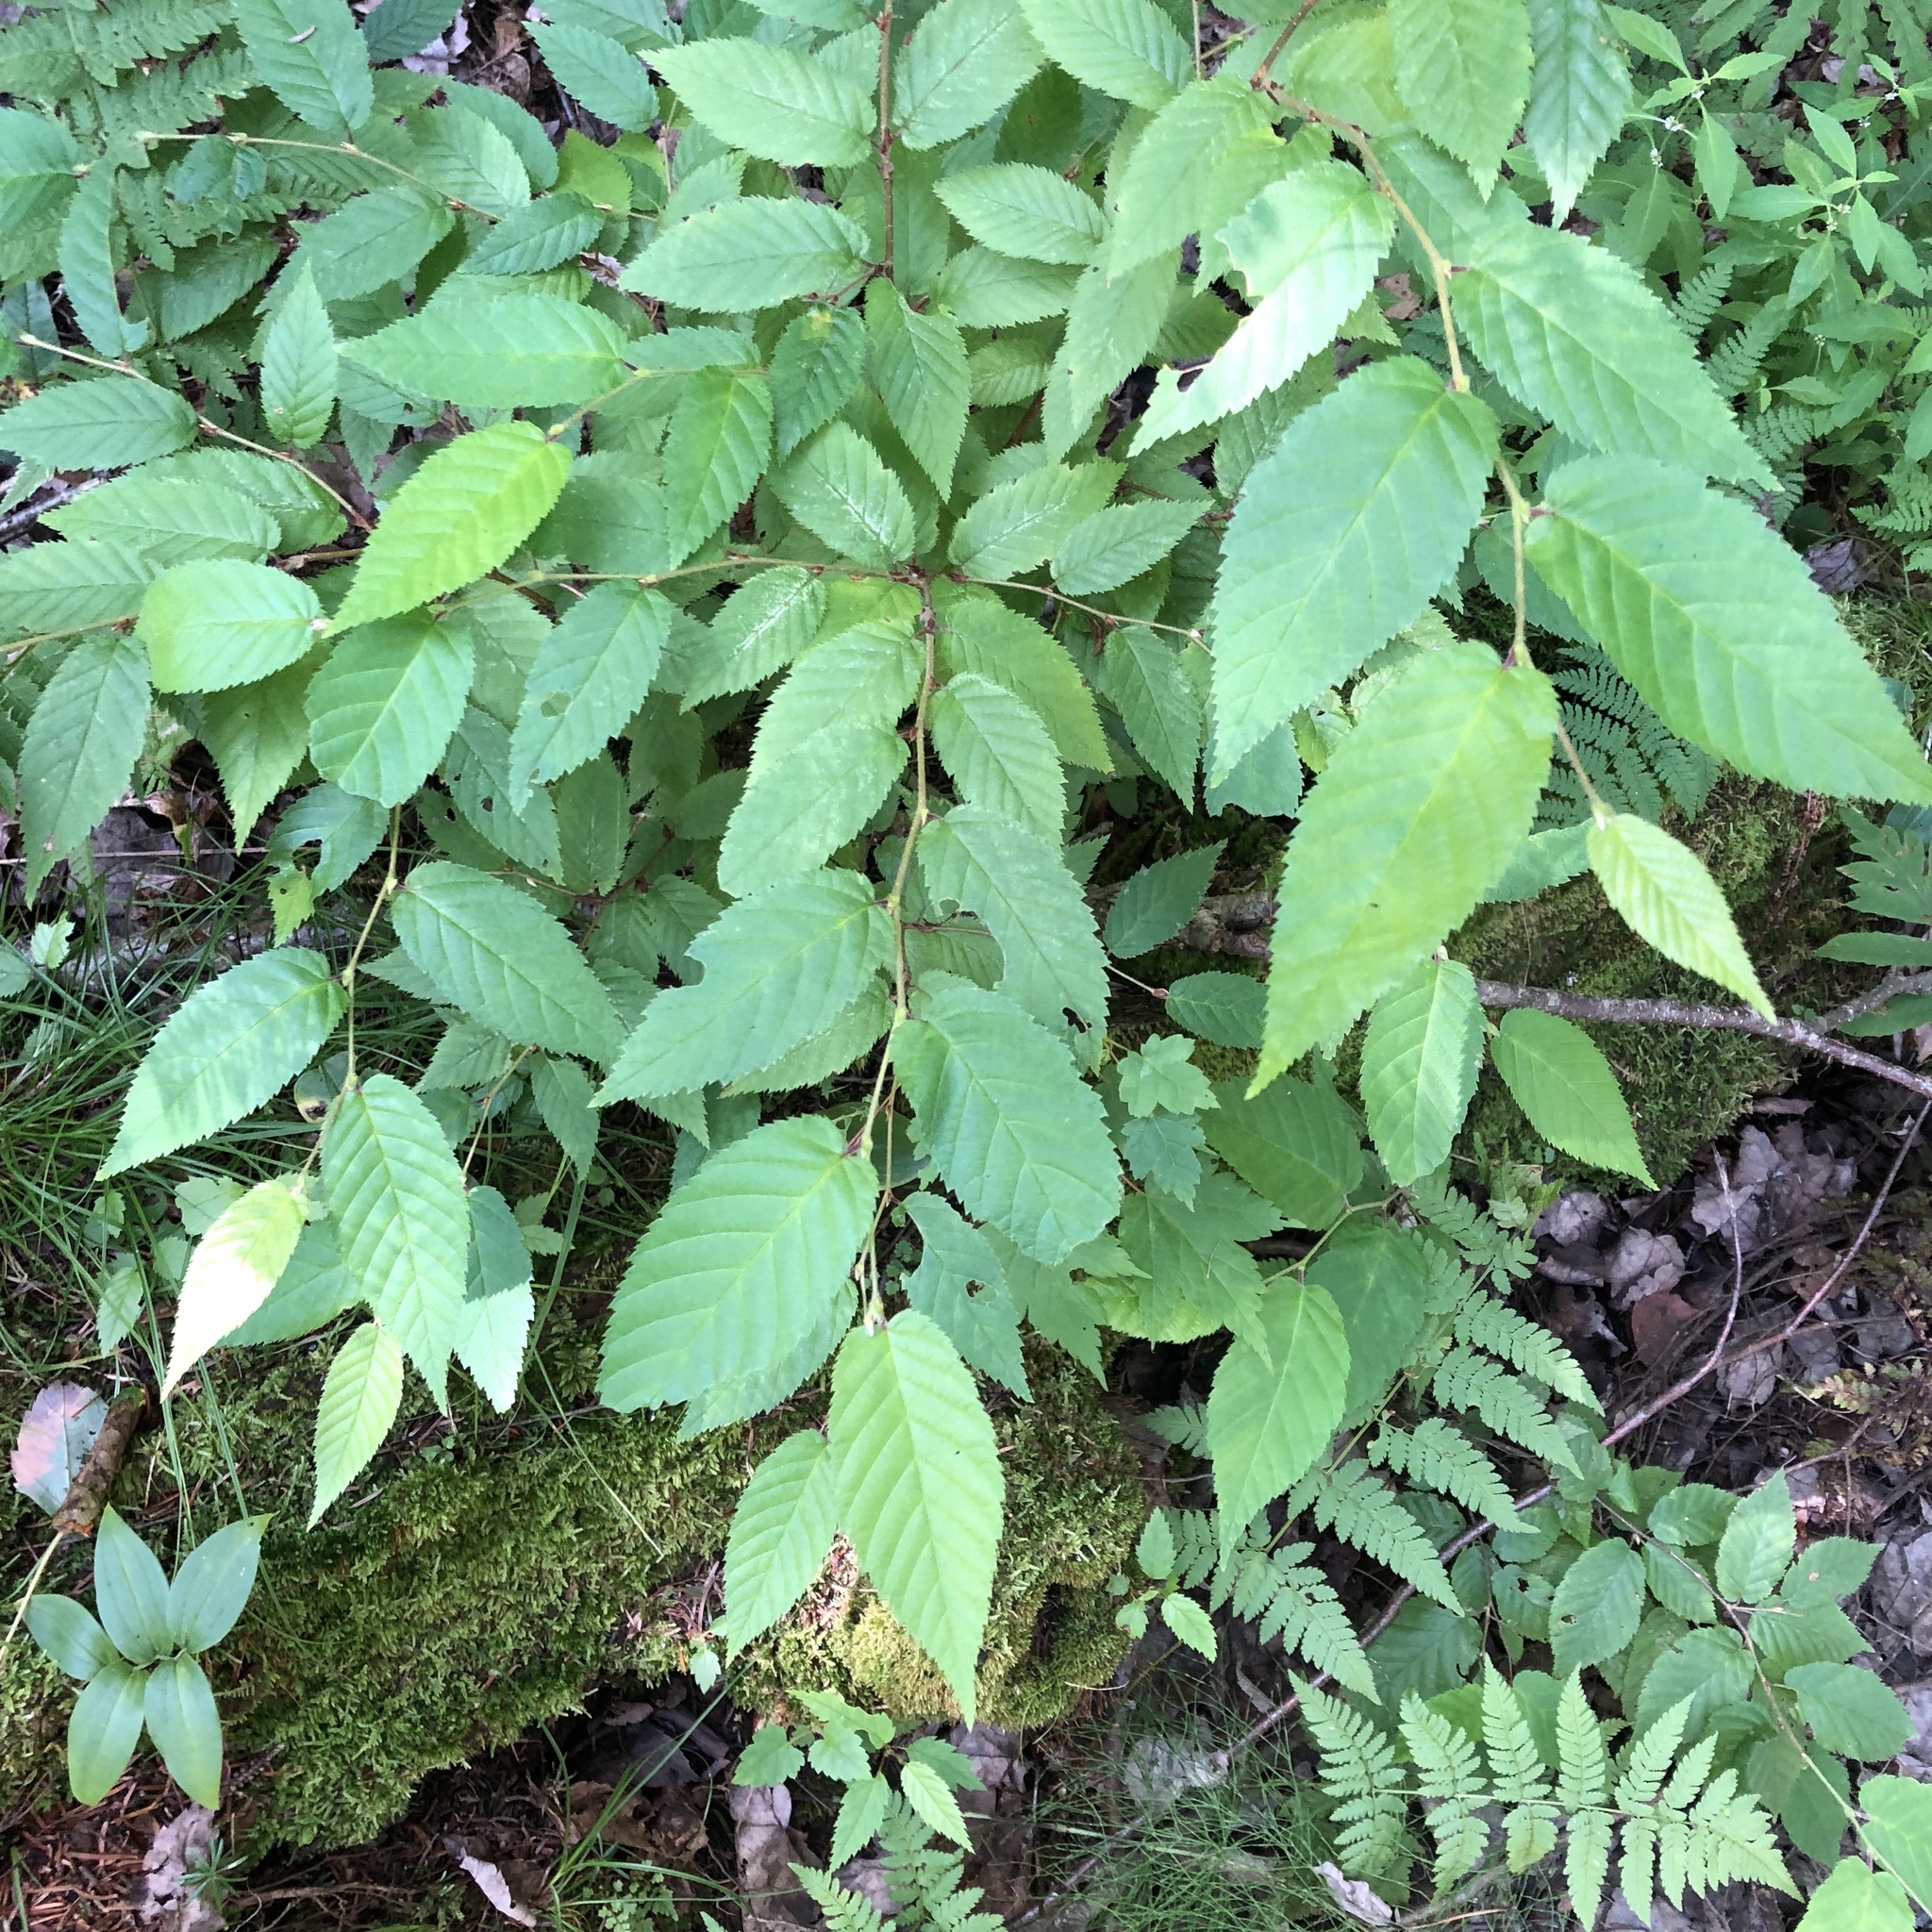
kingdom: Plantae
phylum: Tracheophyta
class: Magnoliopsida
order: Fagales
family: Betulaceae
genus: Betula
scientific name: Betula alleghaniensis
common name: Yellow birch
